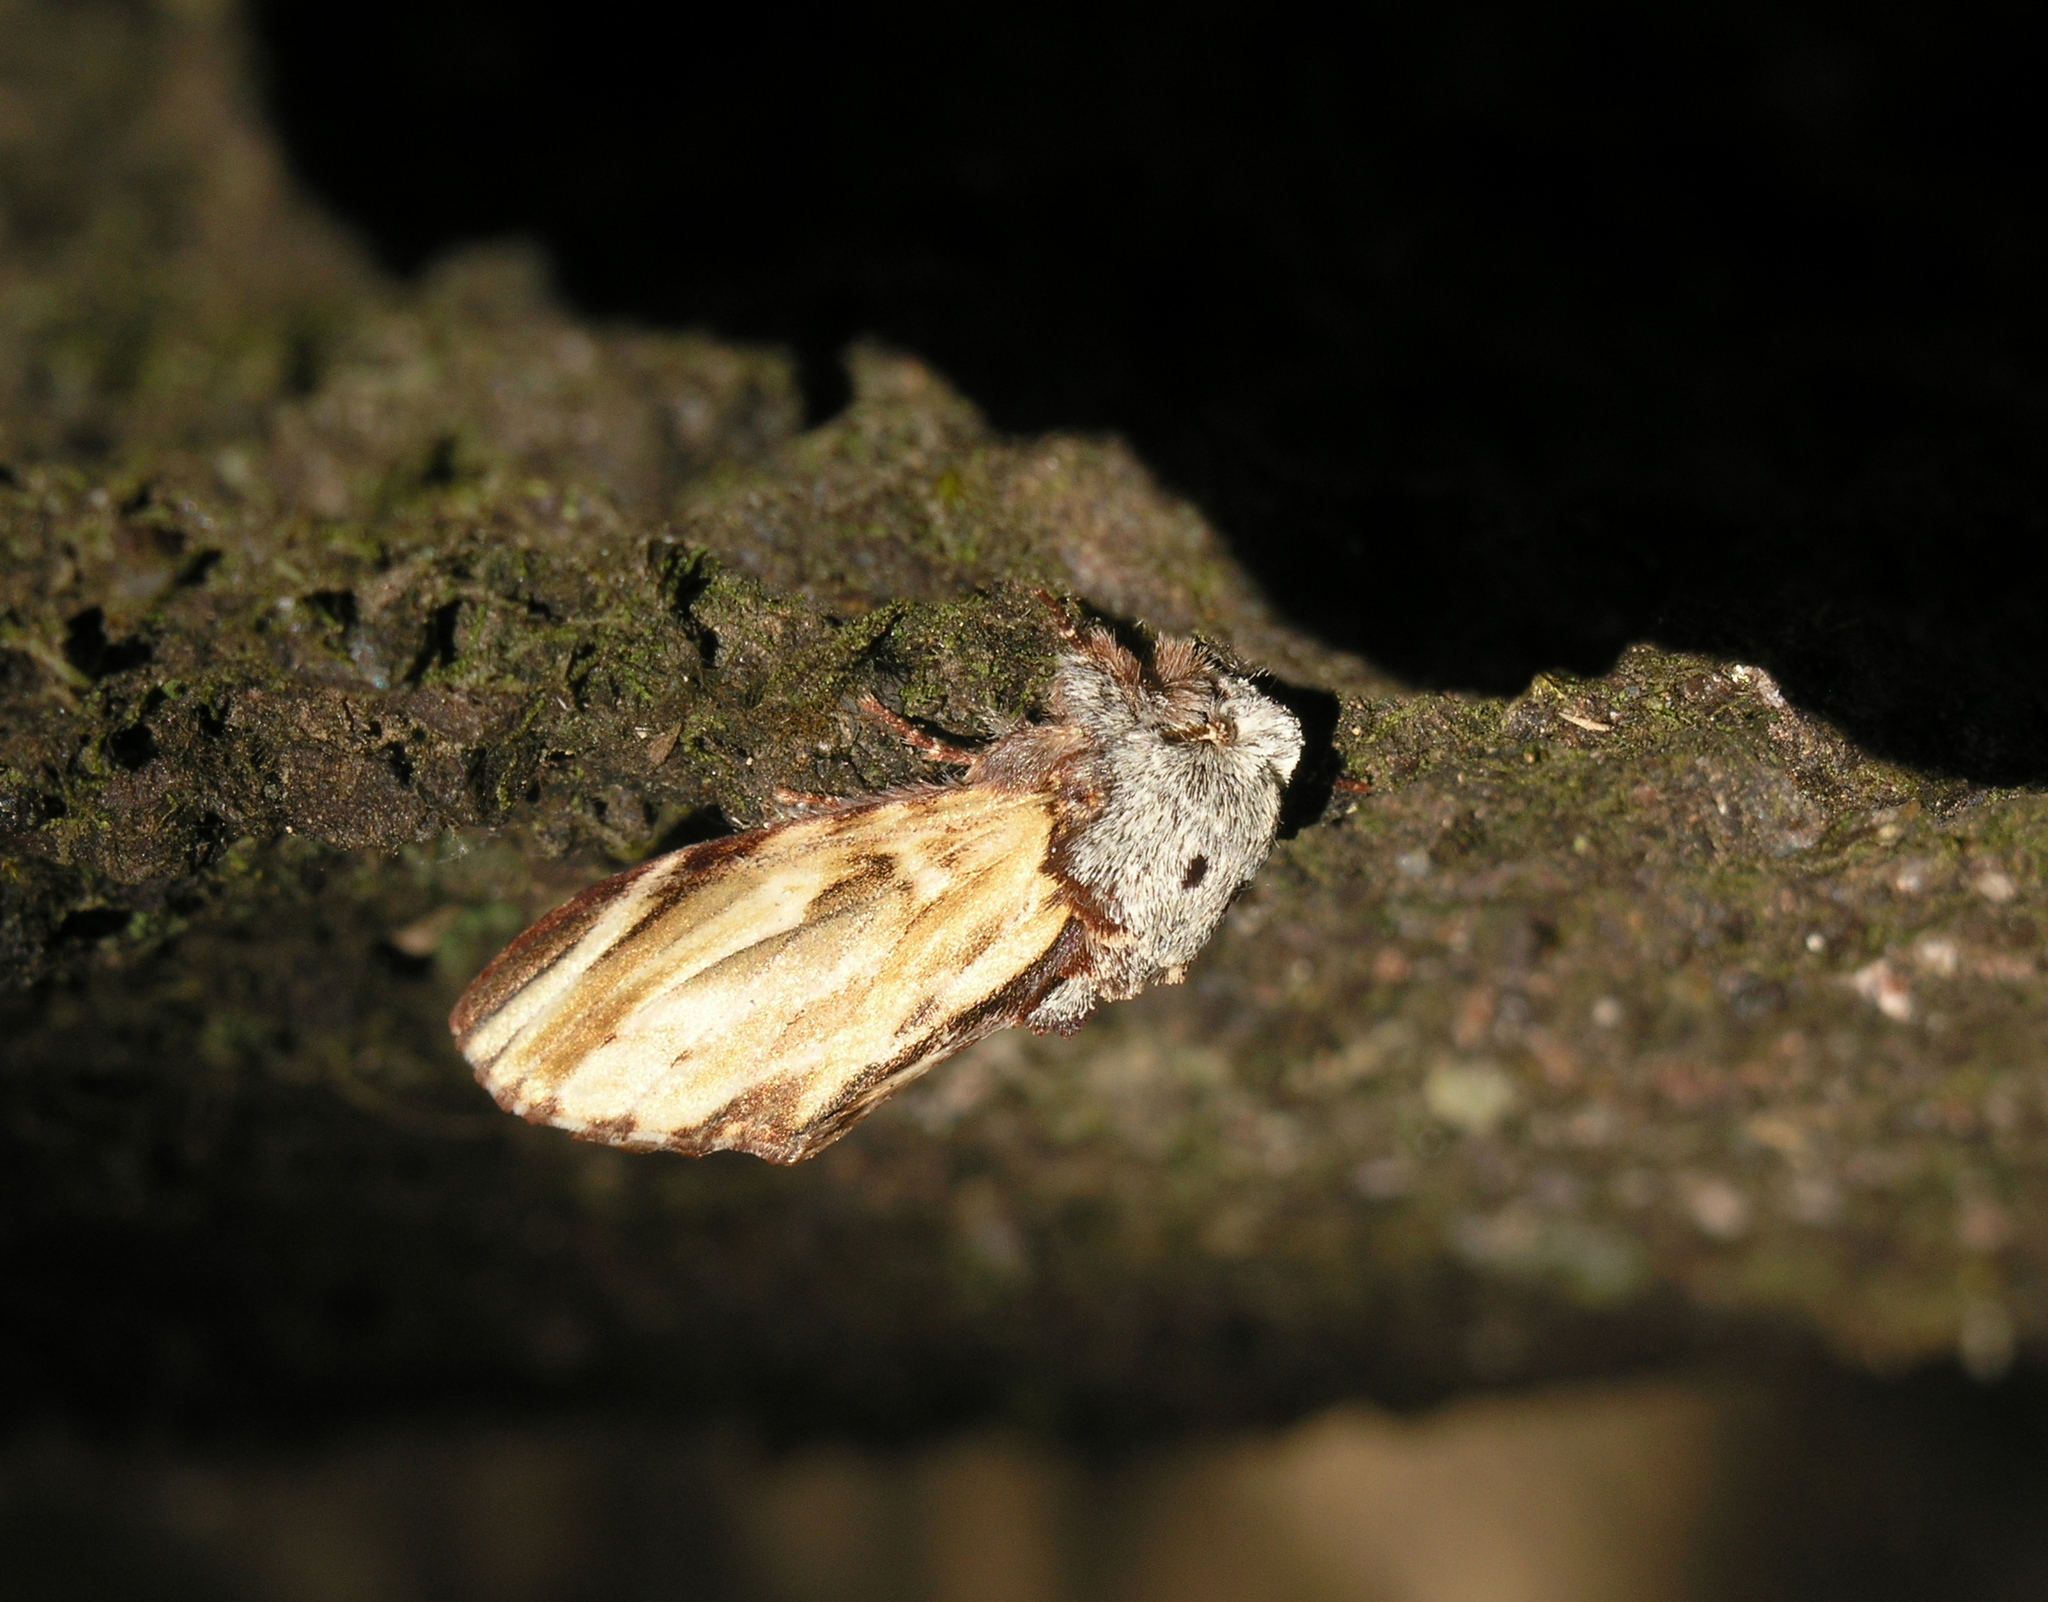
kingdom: Animalia
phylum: Arthropoda
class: Insecta
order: Lepidoptera
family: Notodontidae
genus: Neopheosia
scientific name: Neopheosia fasciata
